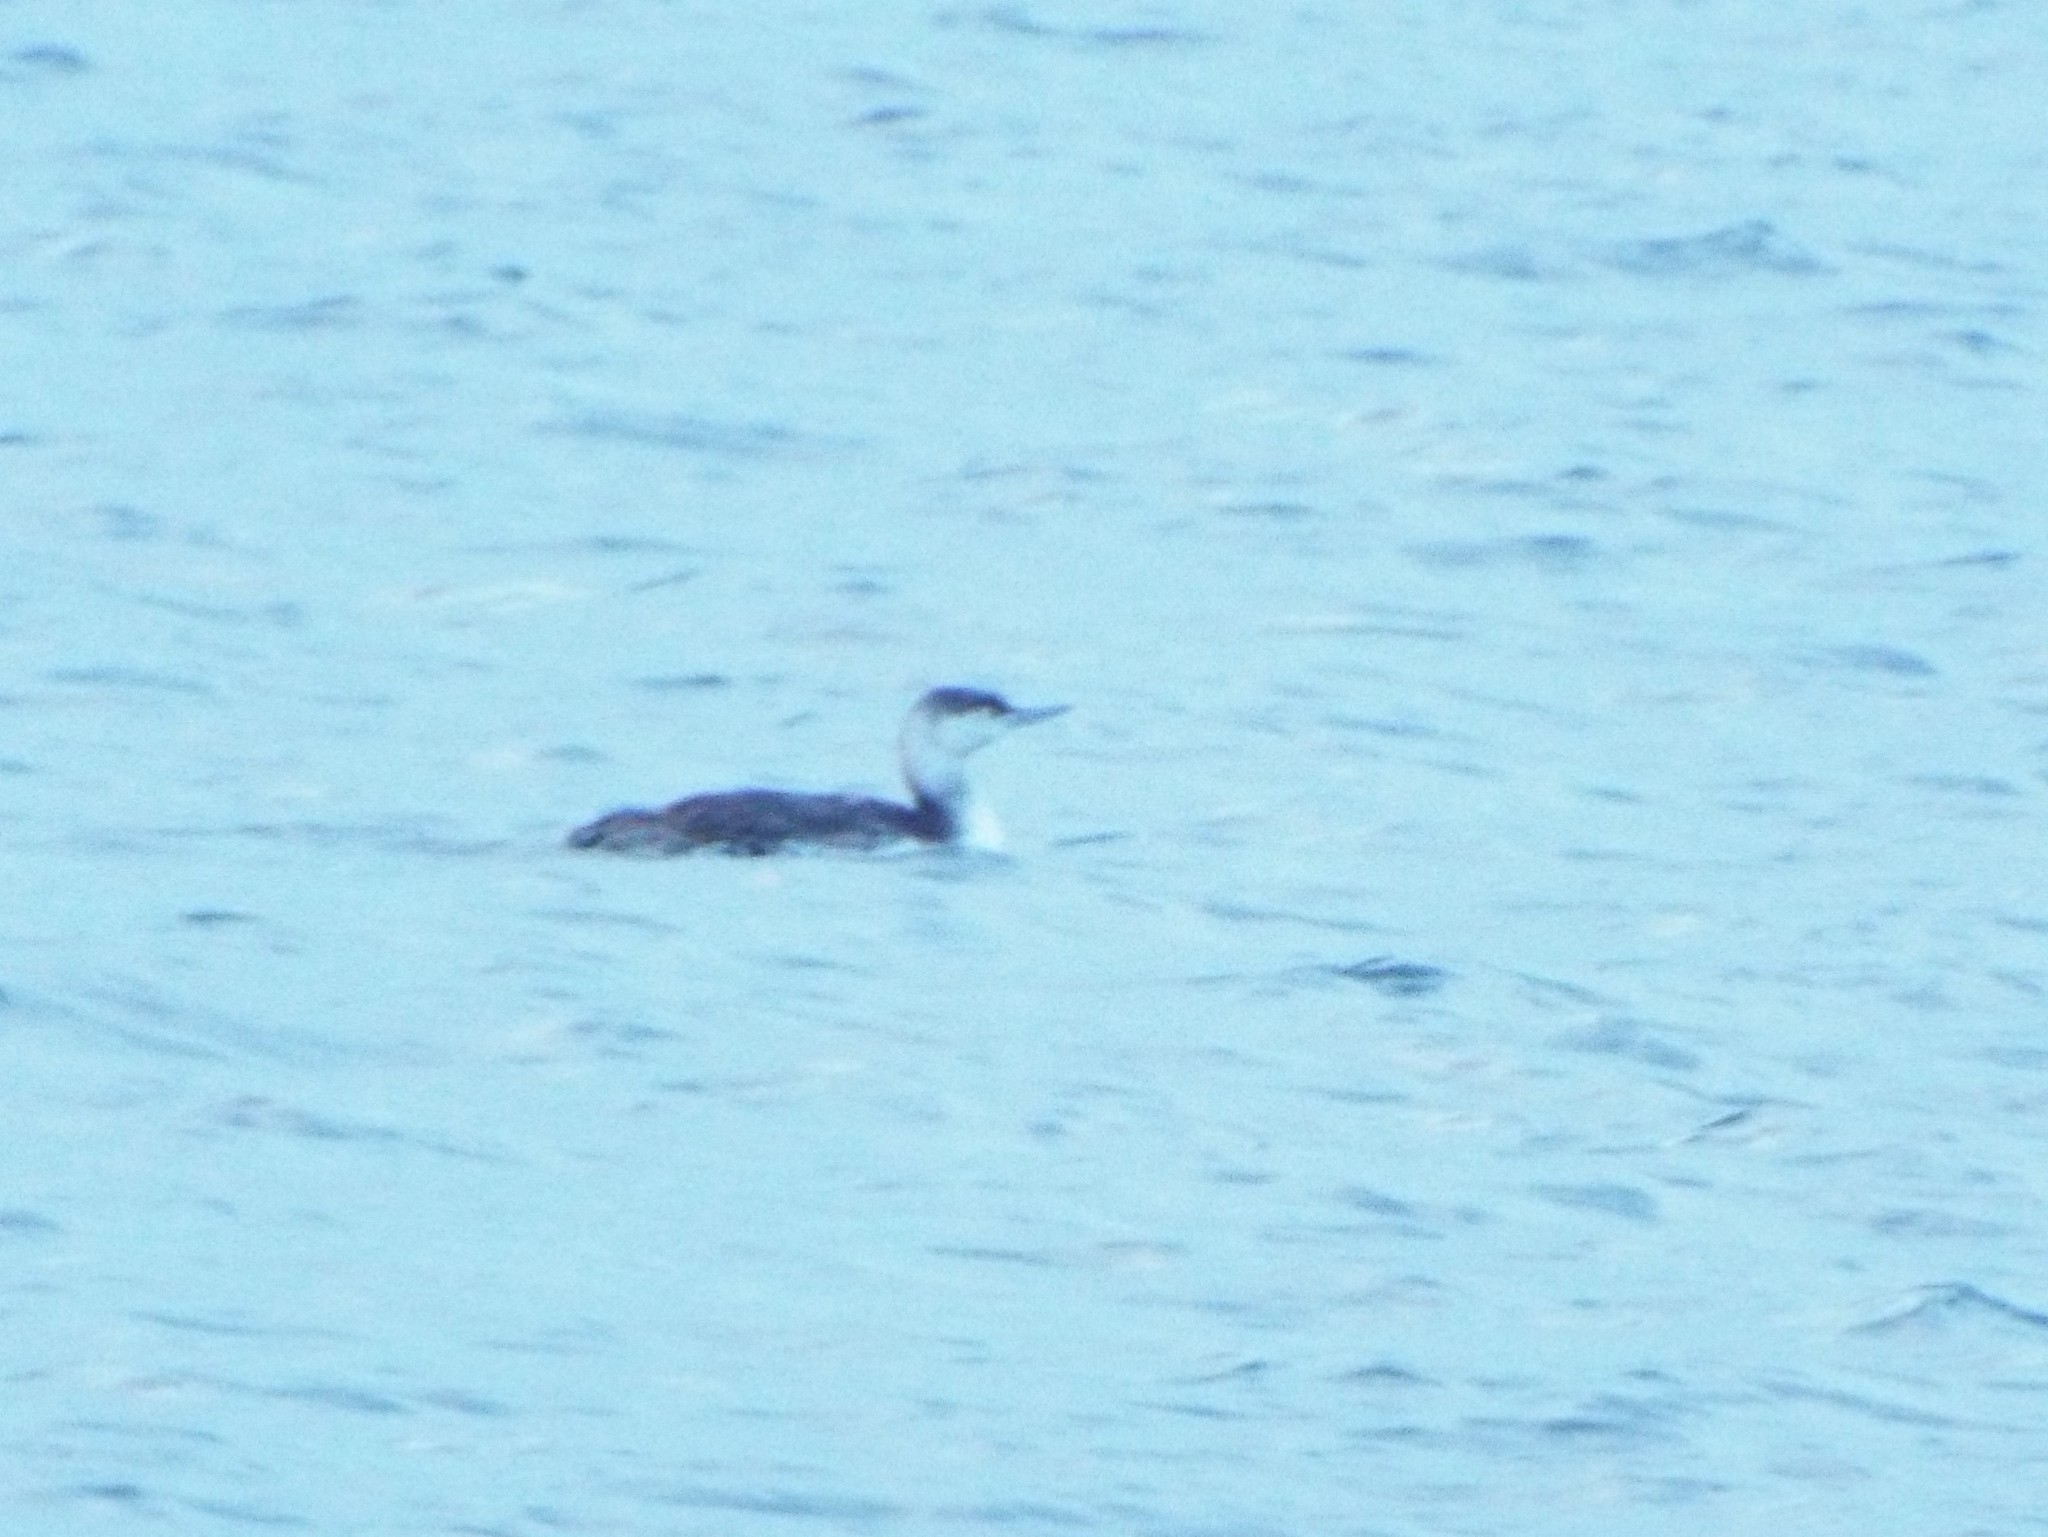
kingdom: Animalia
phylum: Chordata
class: Aves
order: Gaviiformes
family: Gaviidae
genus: Gavia
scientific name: Gavia immer
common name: Common loon
